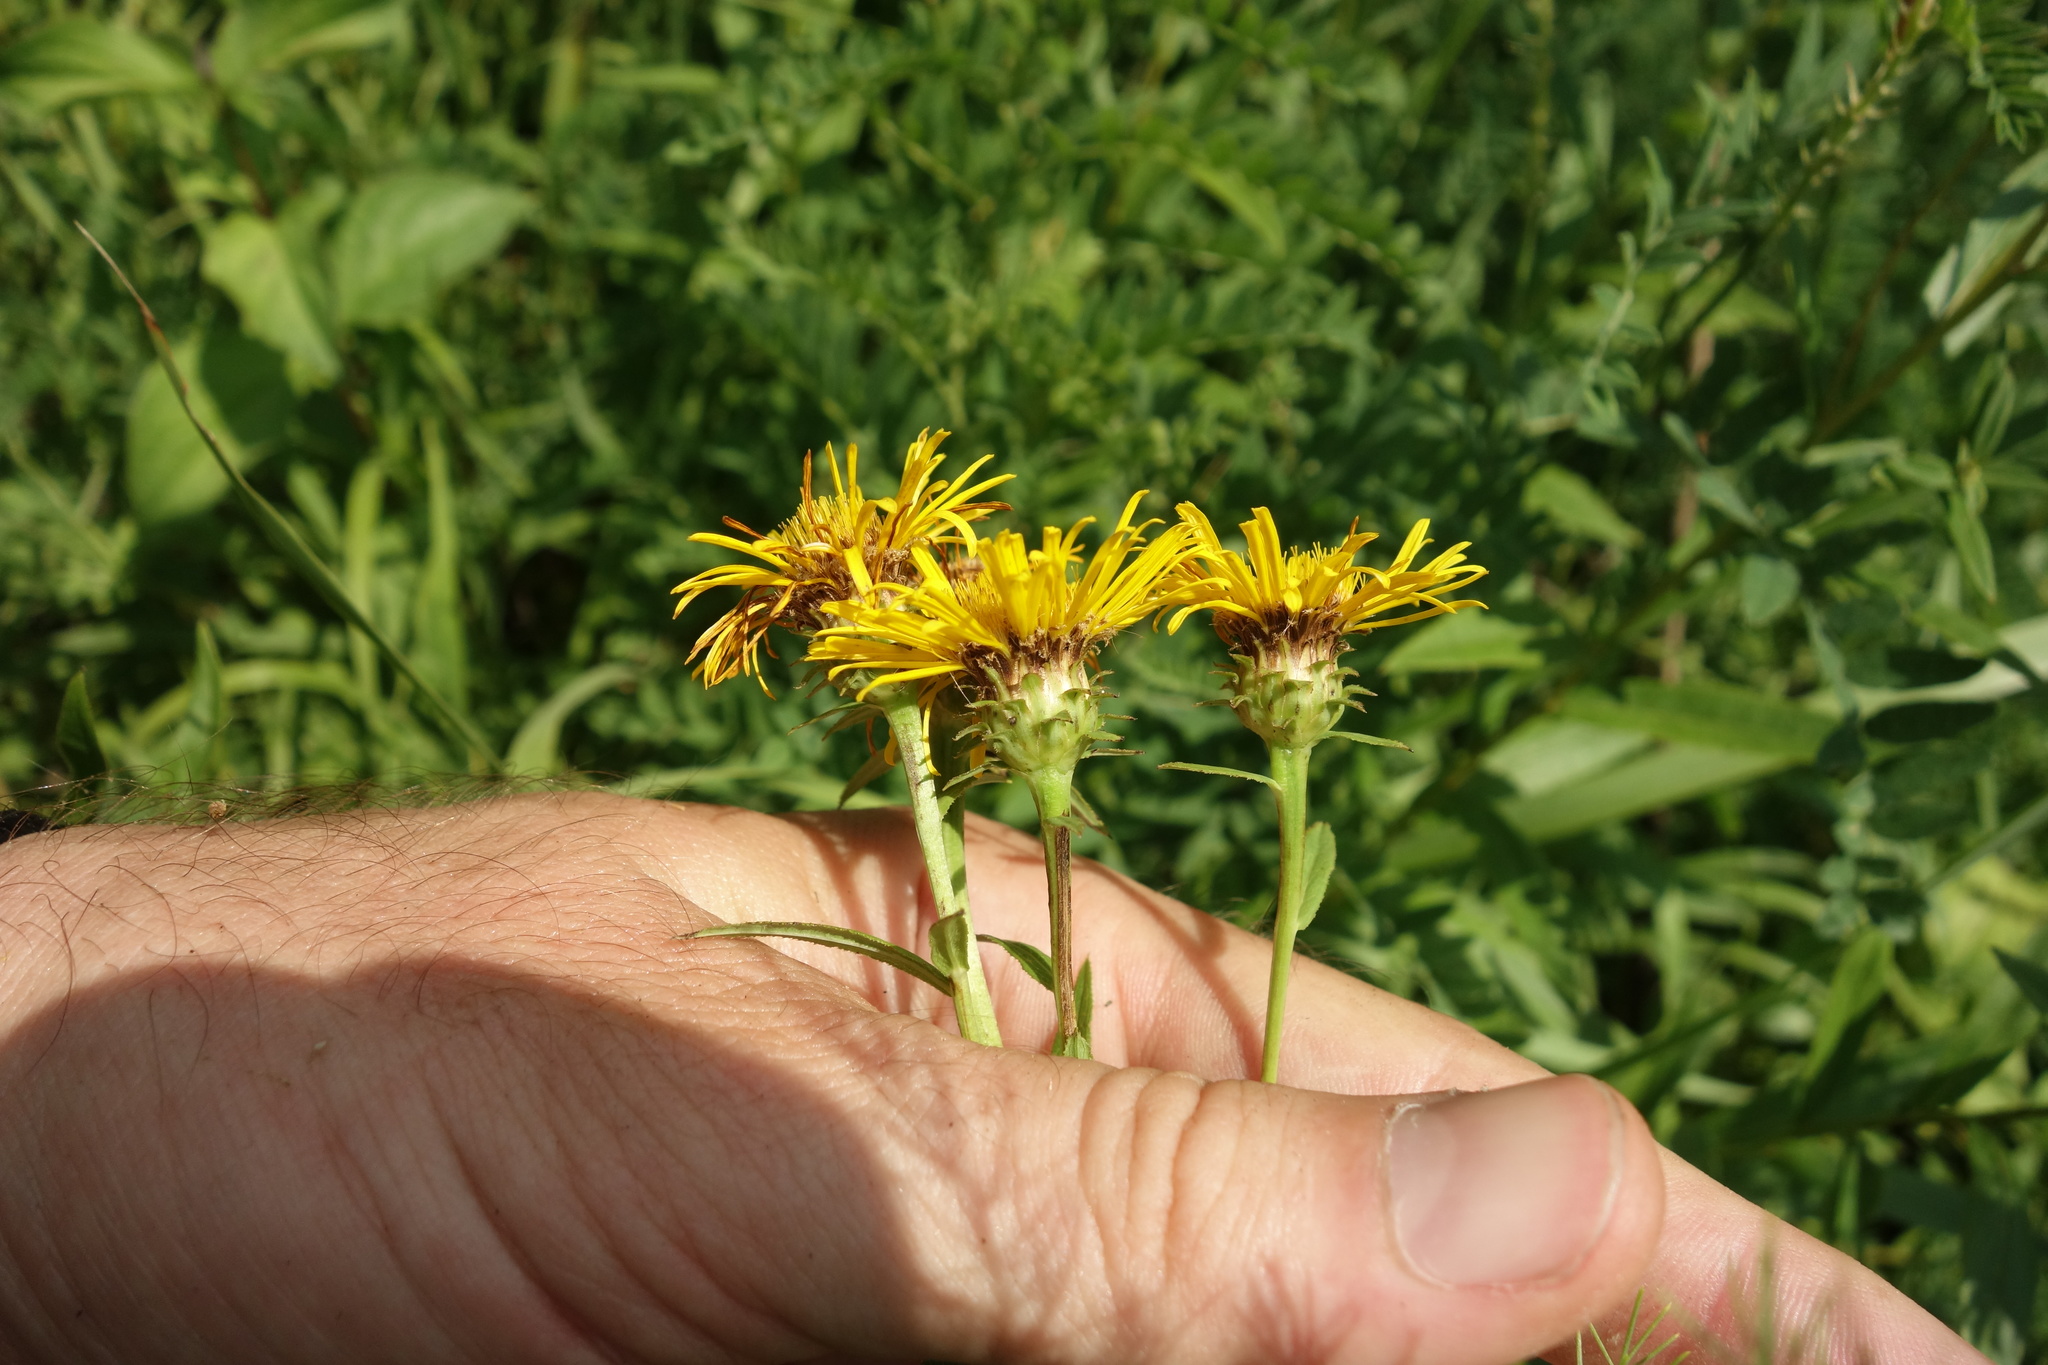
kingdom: Plantae
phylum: Tracheophyta
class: Magnoliopsida
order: Asterales
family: Asteraceae
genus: Pentanema
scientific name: Pentanema salicinum
